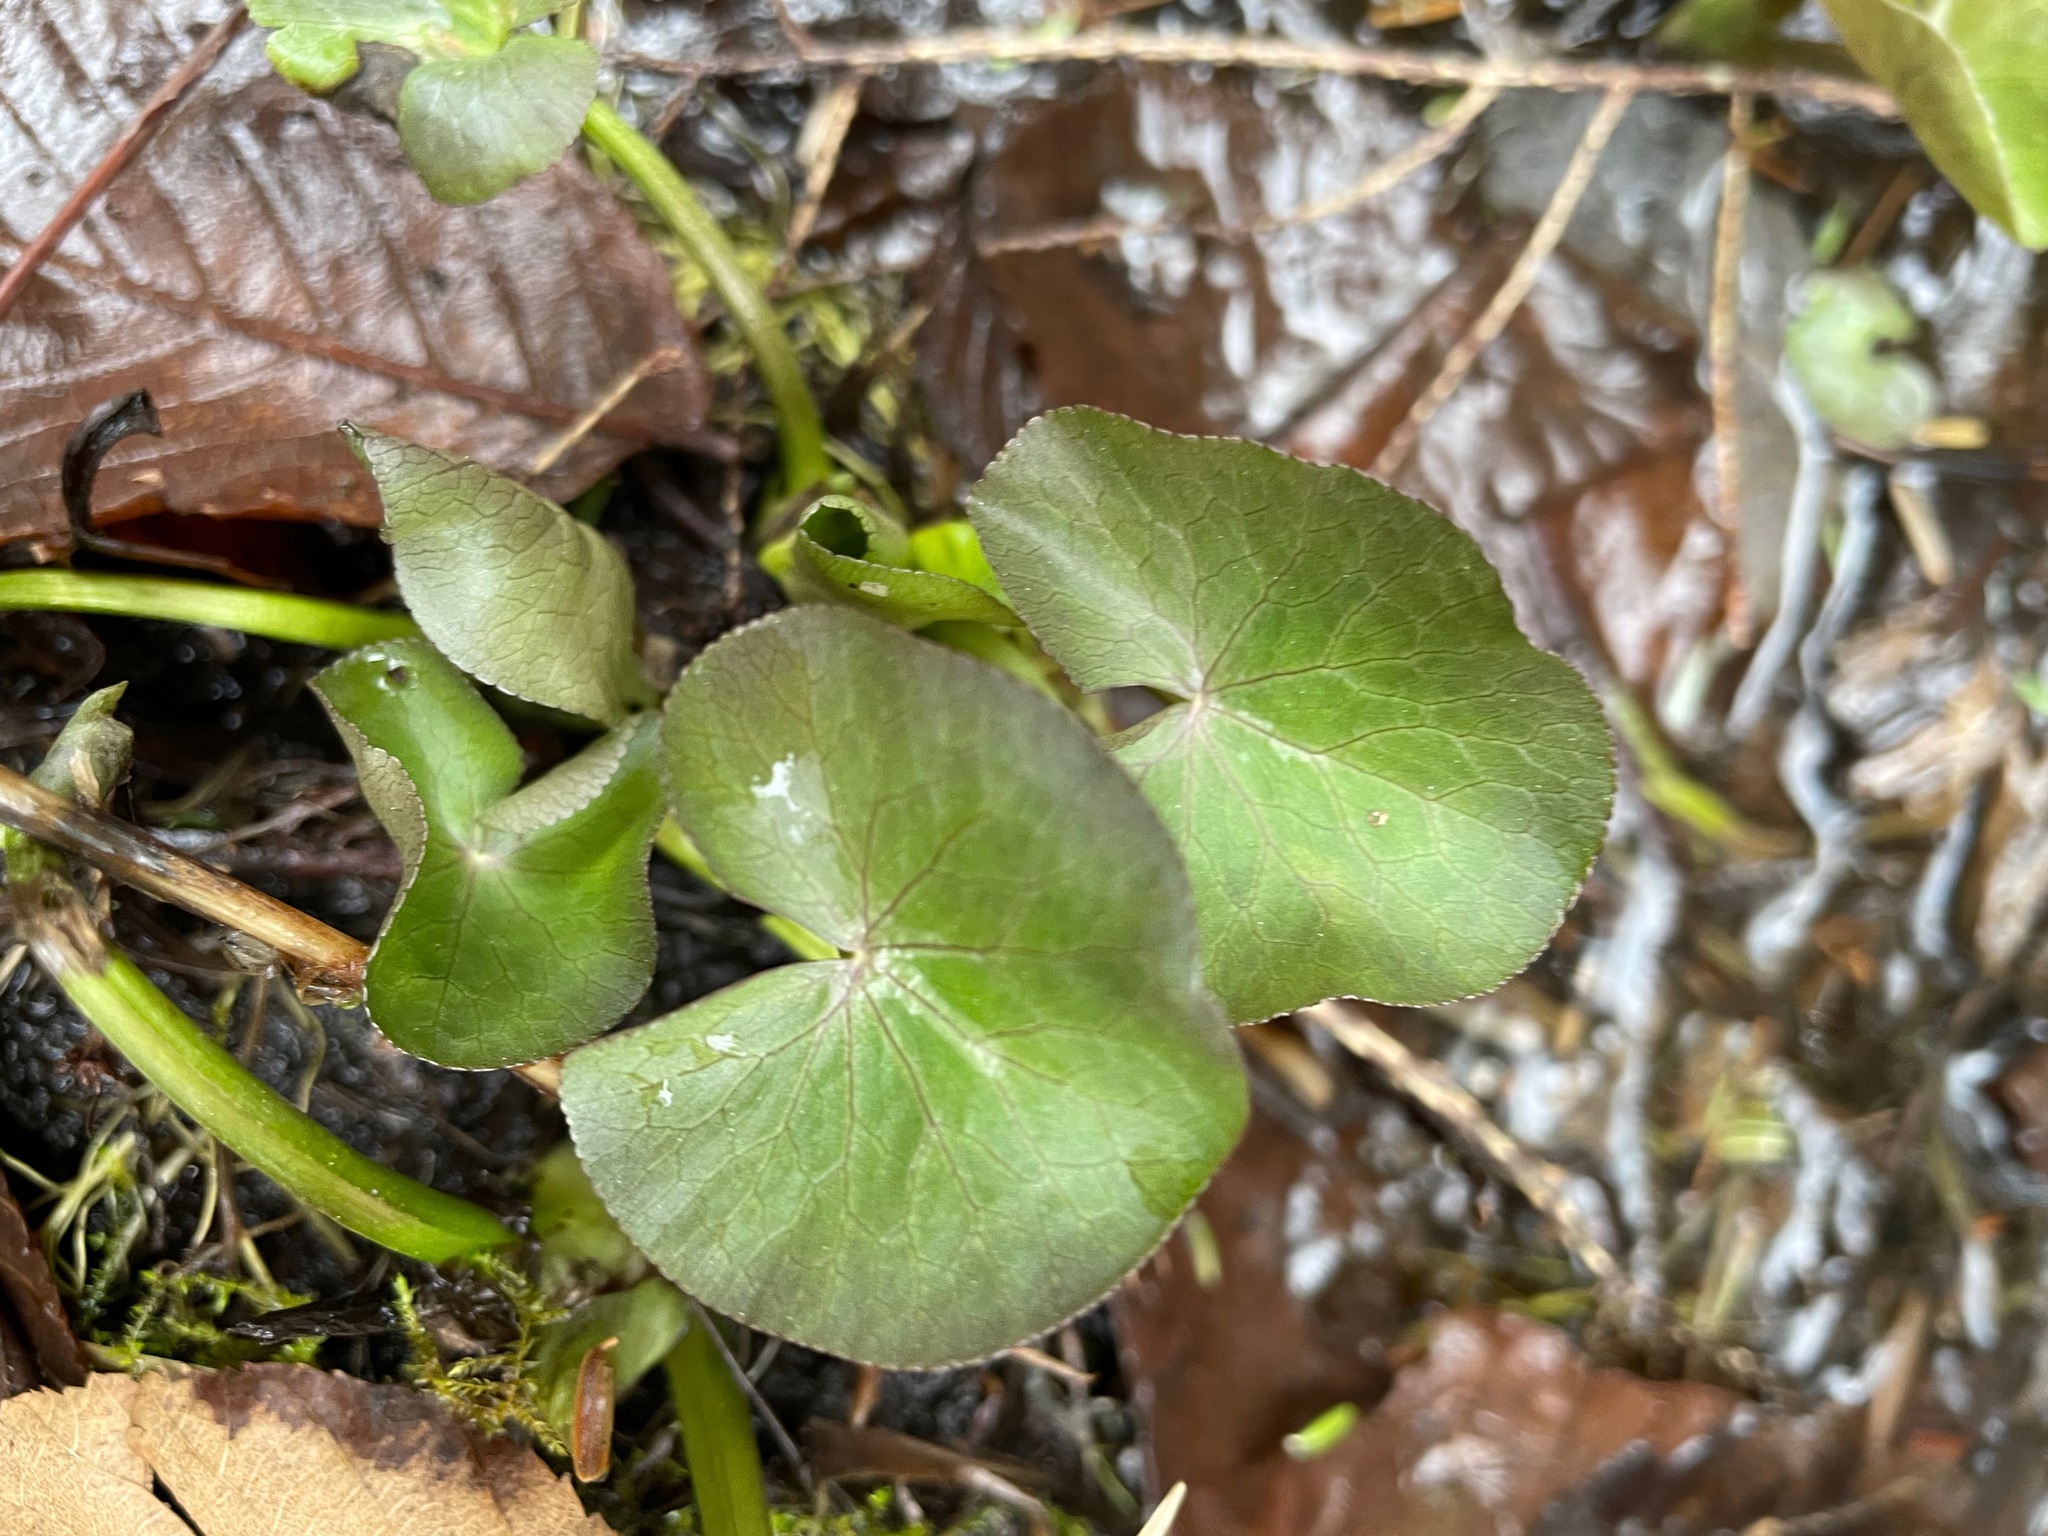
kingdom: Plantae
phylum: Tracheophyta
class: Magnoliopsida
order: Ranunculales
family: Ranunculaceae
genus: Caltha
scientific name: Caltha palustris
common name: Marsh marigold
